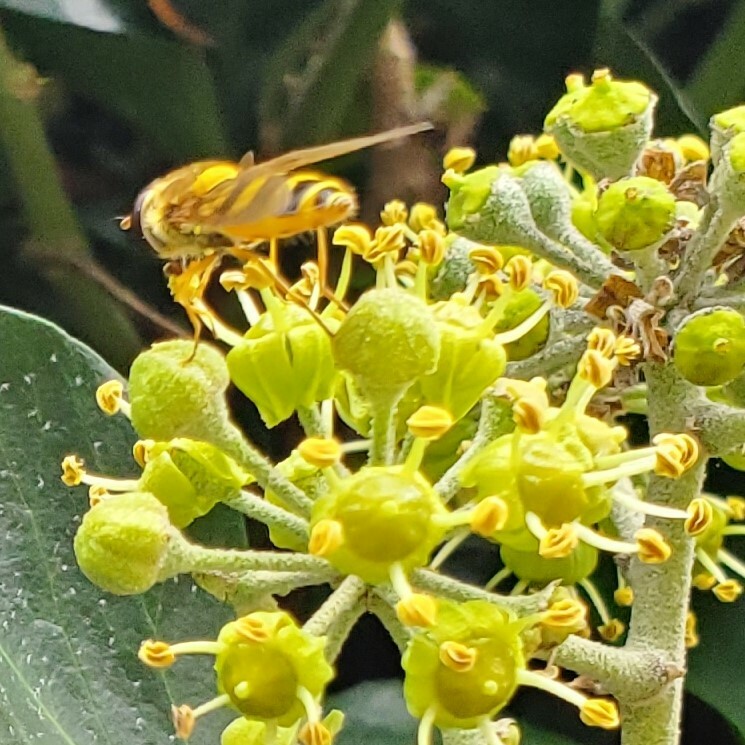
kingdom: Animalia
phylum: Arthropoda
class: Insecta
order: Diptera
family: Syrphidae
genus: Syrphus
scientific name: Syrphus ribesii
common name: Common flower fly
